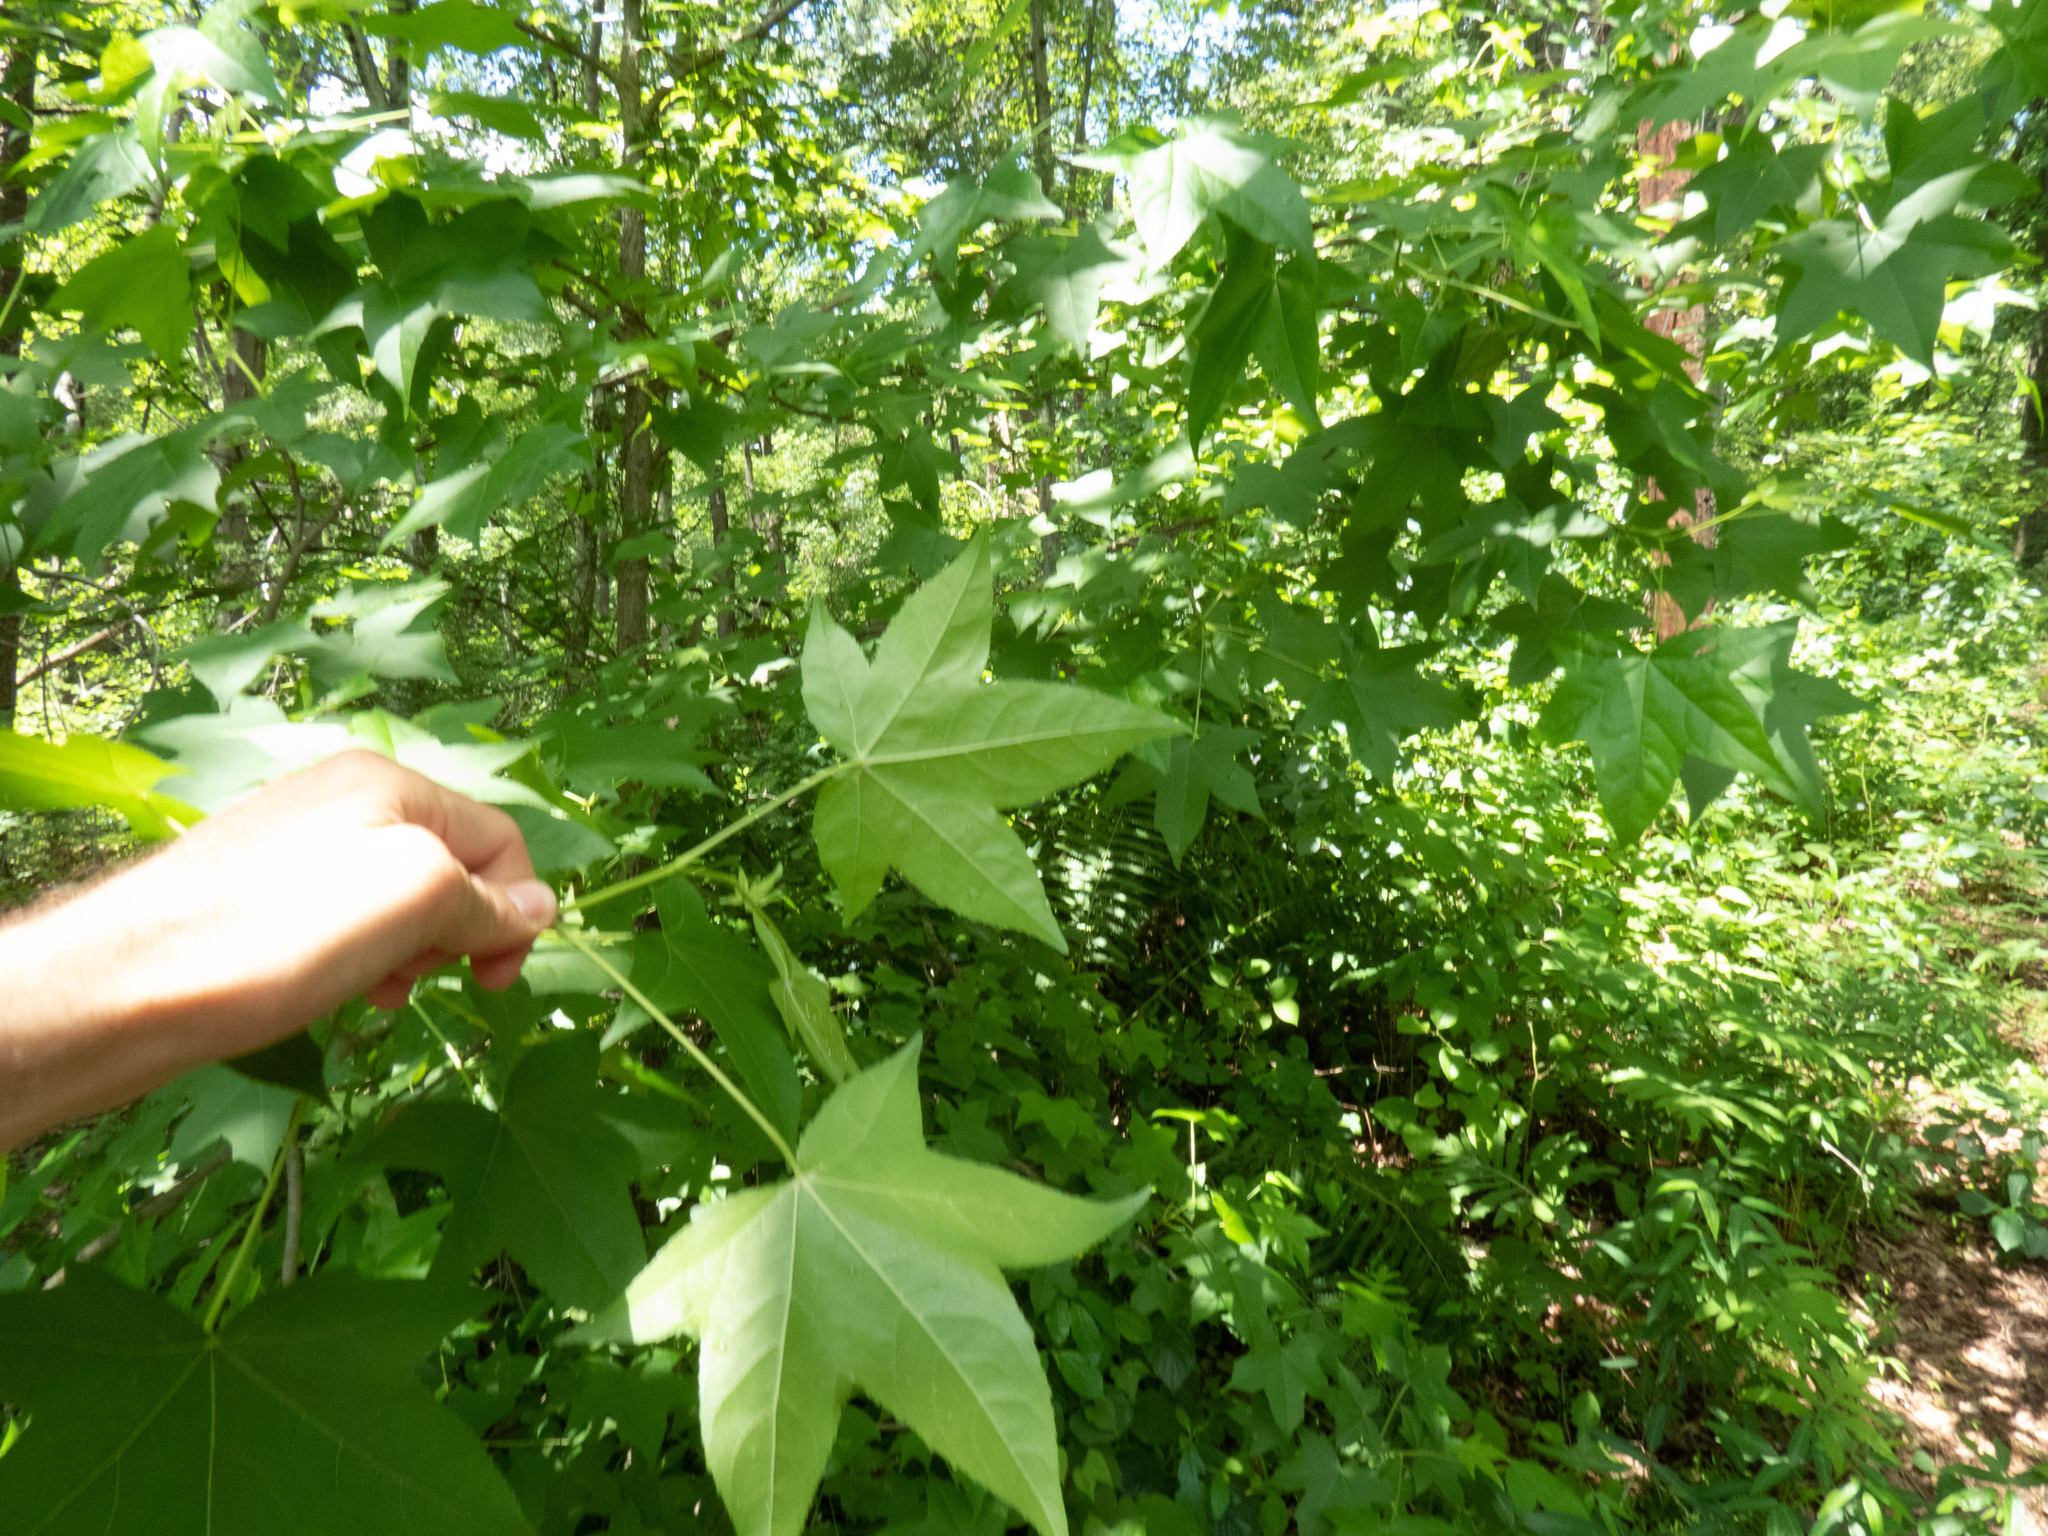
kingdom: Plantae
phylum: Tracheophyta
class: Magnoliopsida
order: Saxifragales
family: Altingiaceae
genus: Liquidambar
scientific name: Liquidambar styraciflua
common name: Sweet gum
